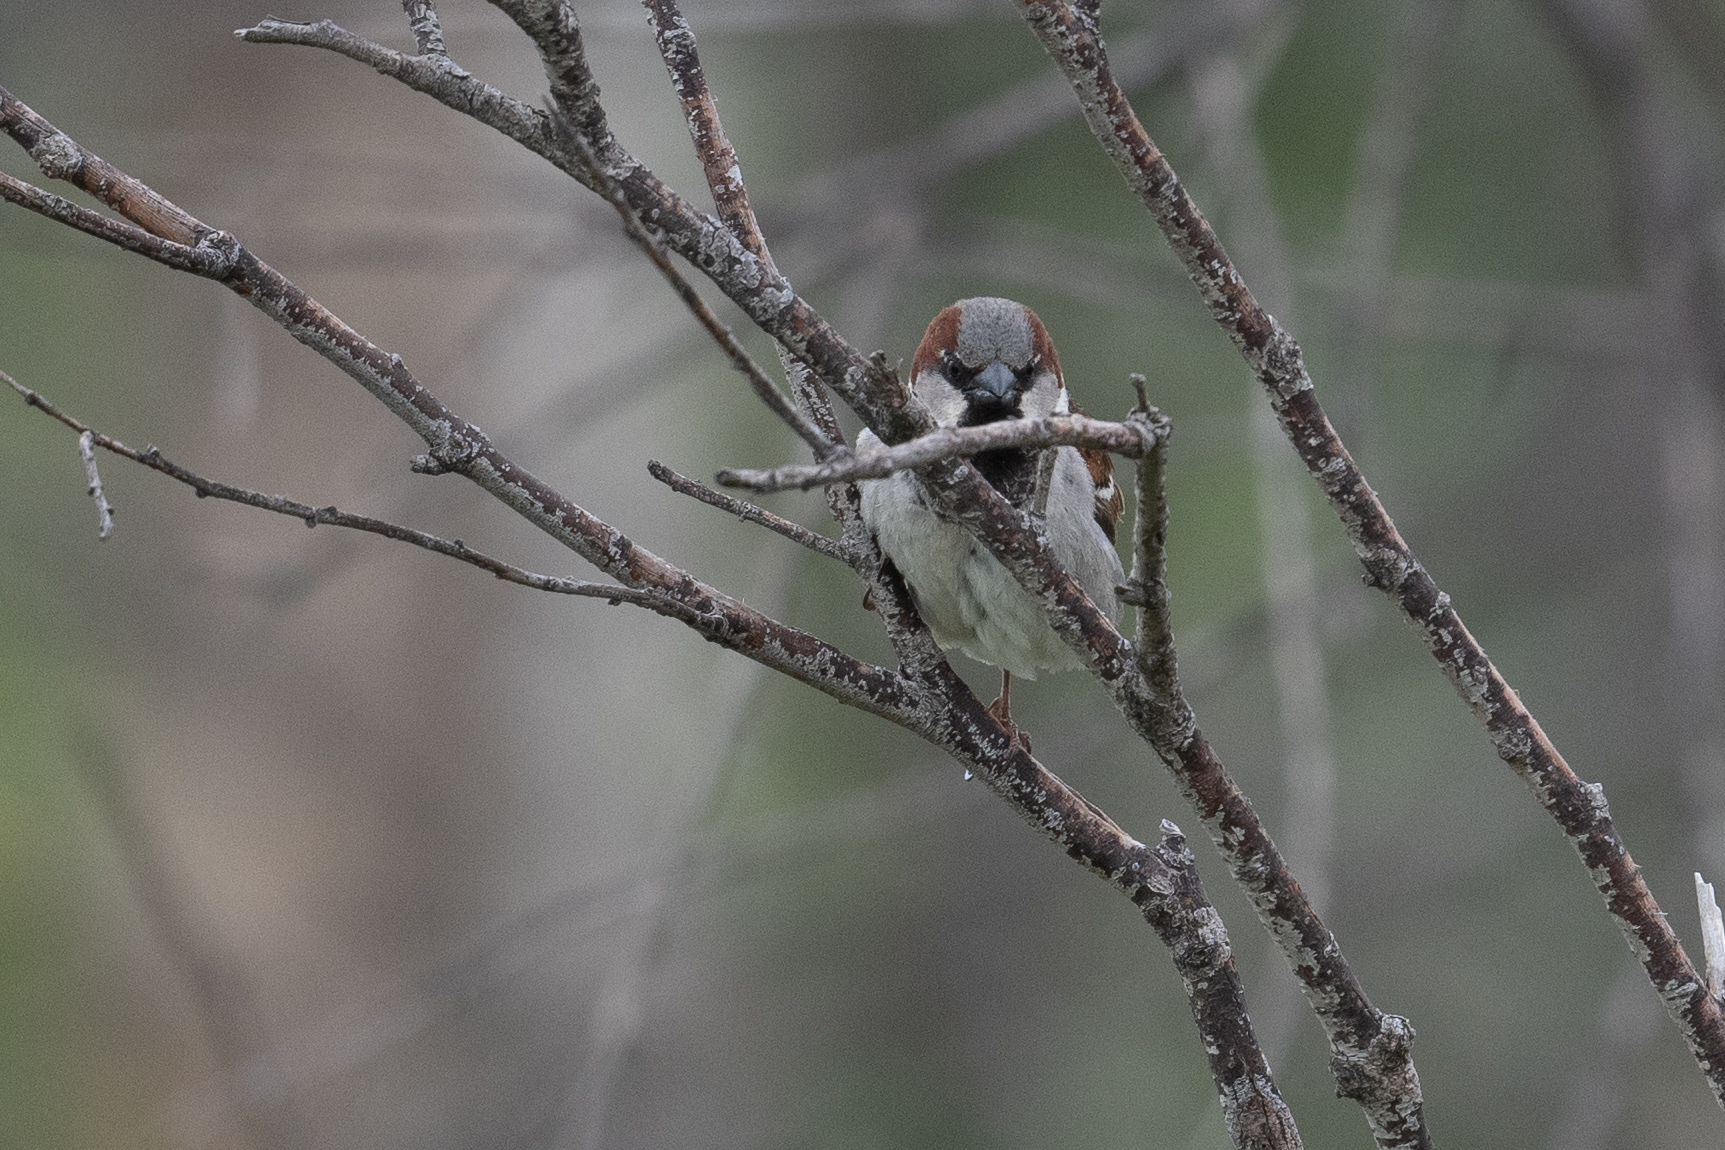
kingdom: Animalia
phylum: Chordata
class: Aves
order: Passeriformes
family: Passeridae
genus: Passer
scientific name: Passer domesticus
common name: House sparrow
